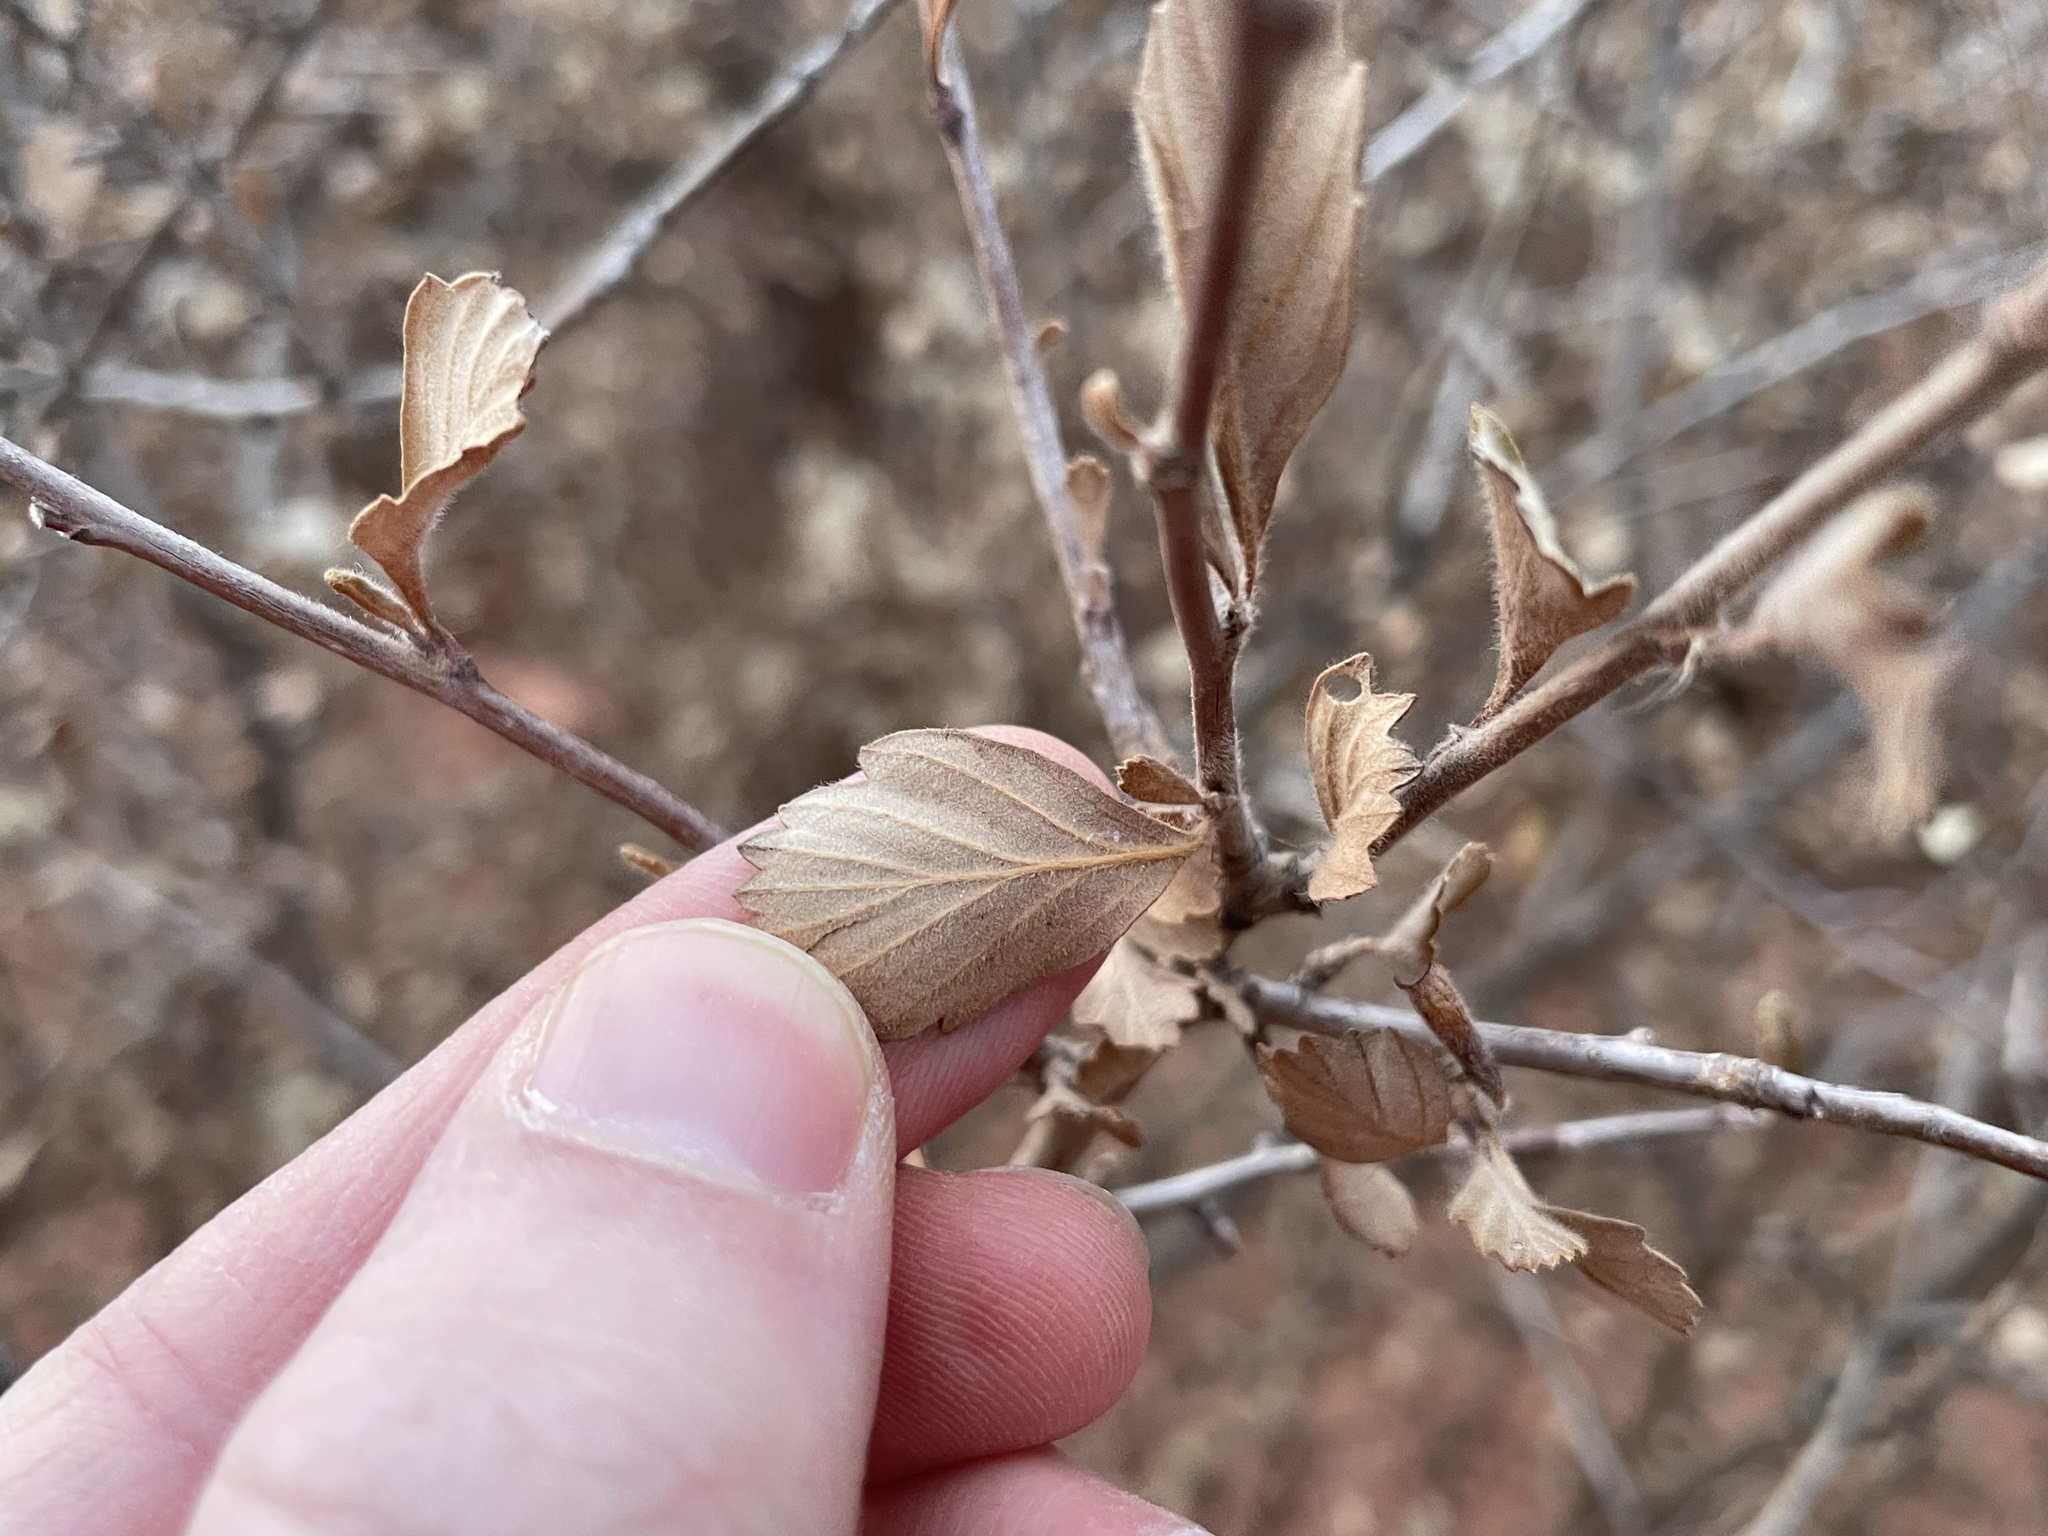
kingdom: Plantae
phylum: Tracheophyta
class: Magnoliopsida
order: Rosales
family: Rosaceae
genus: Cercocarpus
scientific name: Cercocarpus montanus
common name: Alder-leaf cercocarpus
